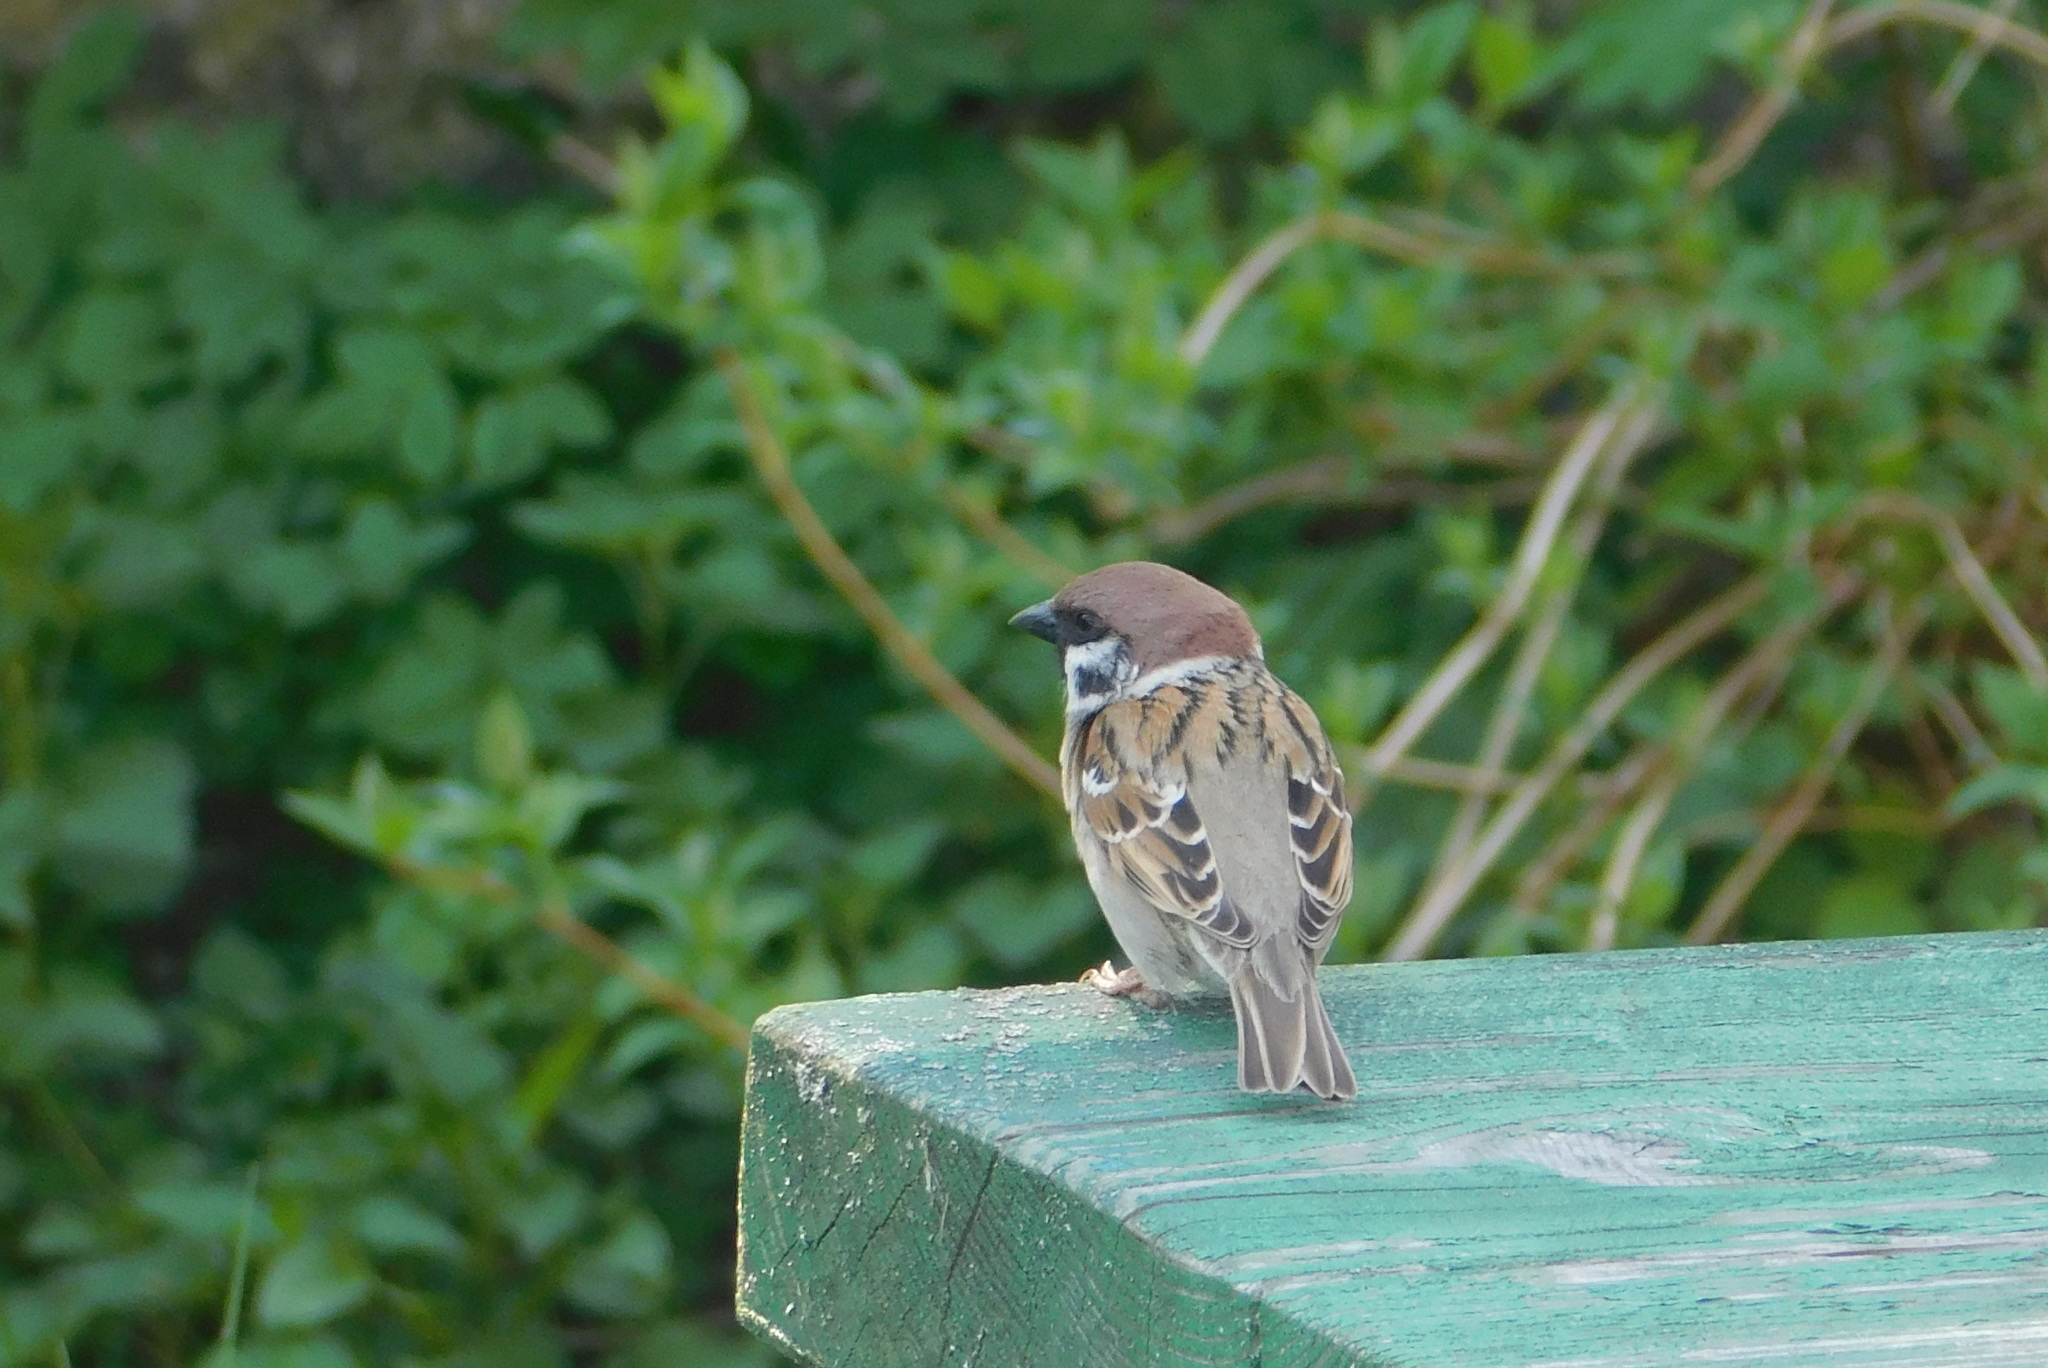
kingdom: Animalia
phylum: Chordata
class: Aves
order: Passeriformes
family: Passeridae
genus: Passer
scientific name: Passer montanus
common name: Eurasian tree sparrow
